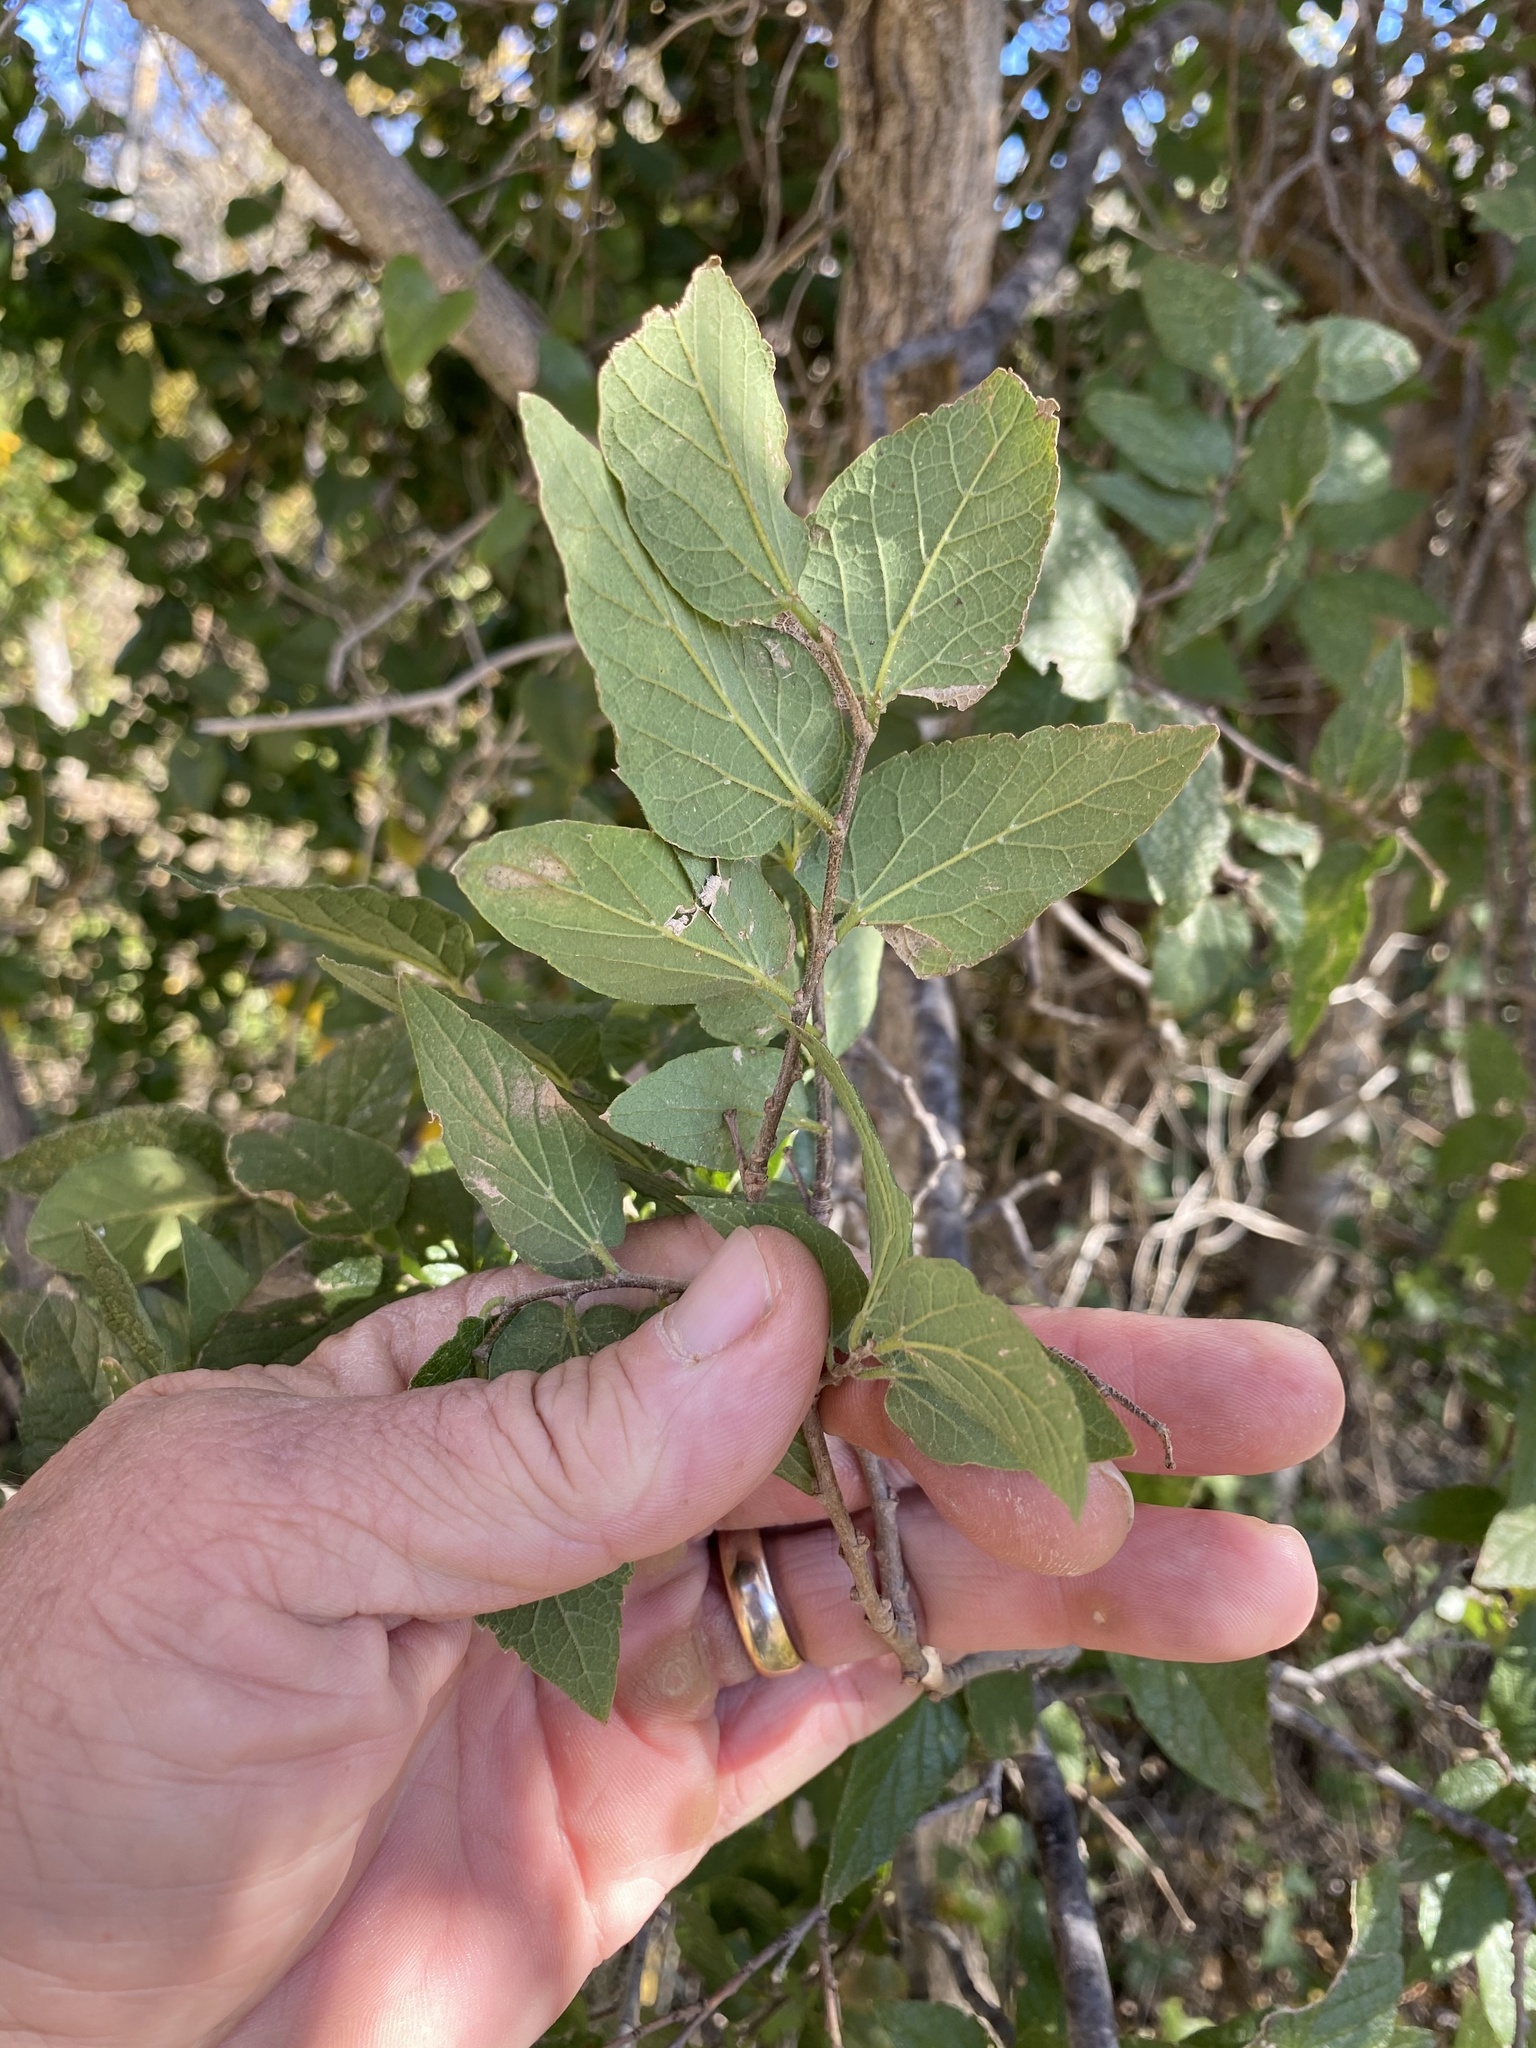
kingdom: Plantae
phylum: Tracheophyta
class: Magnoliopsida
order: Rosales
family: Cannabaceae
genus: Celtis
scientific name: Celtis reticulata
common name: Netleaf hackberry
